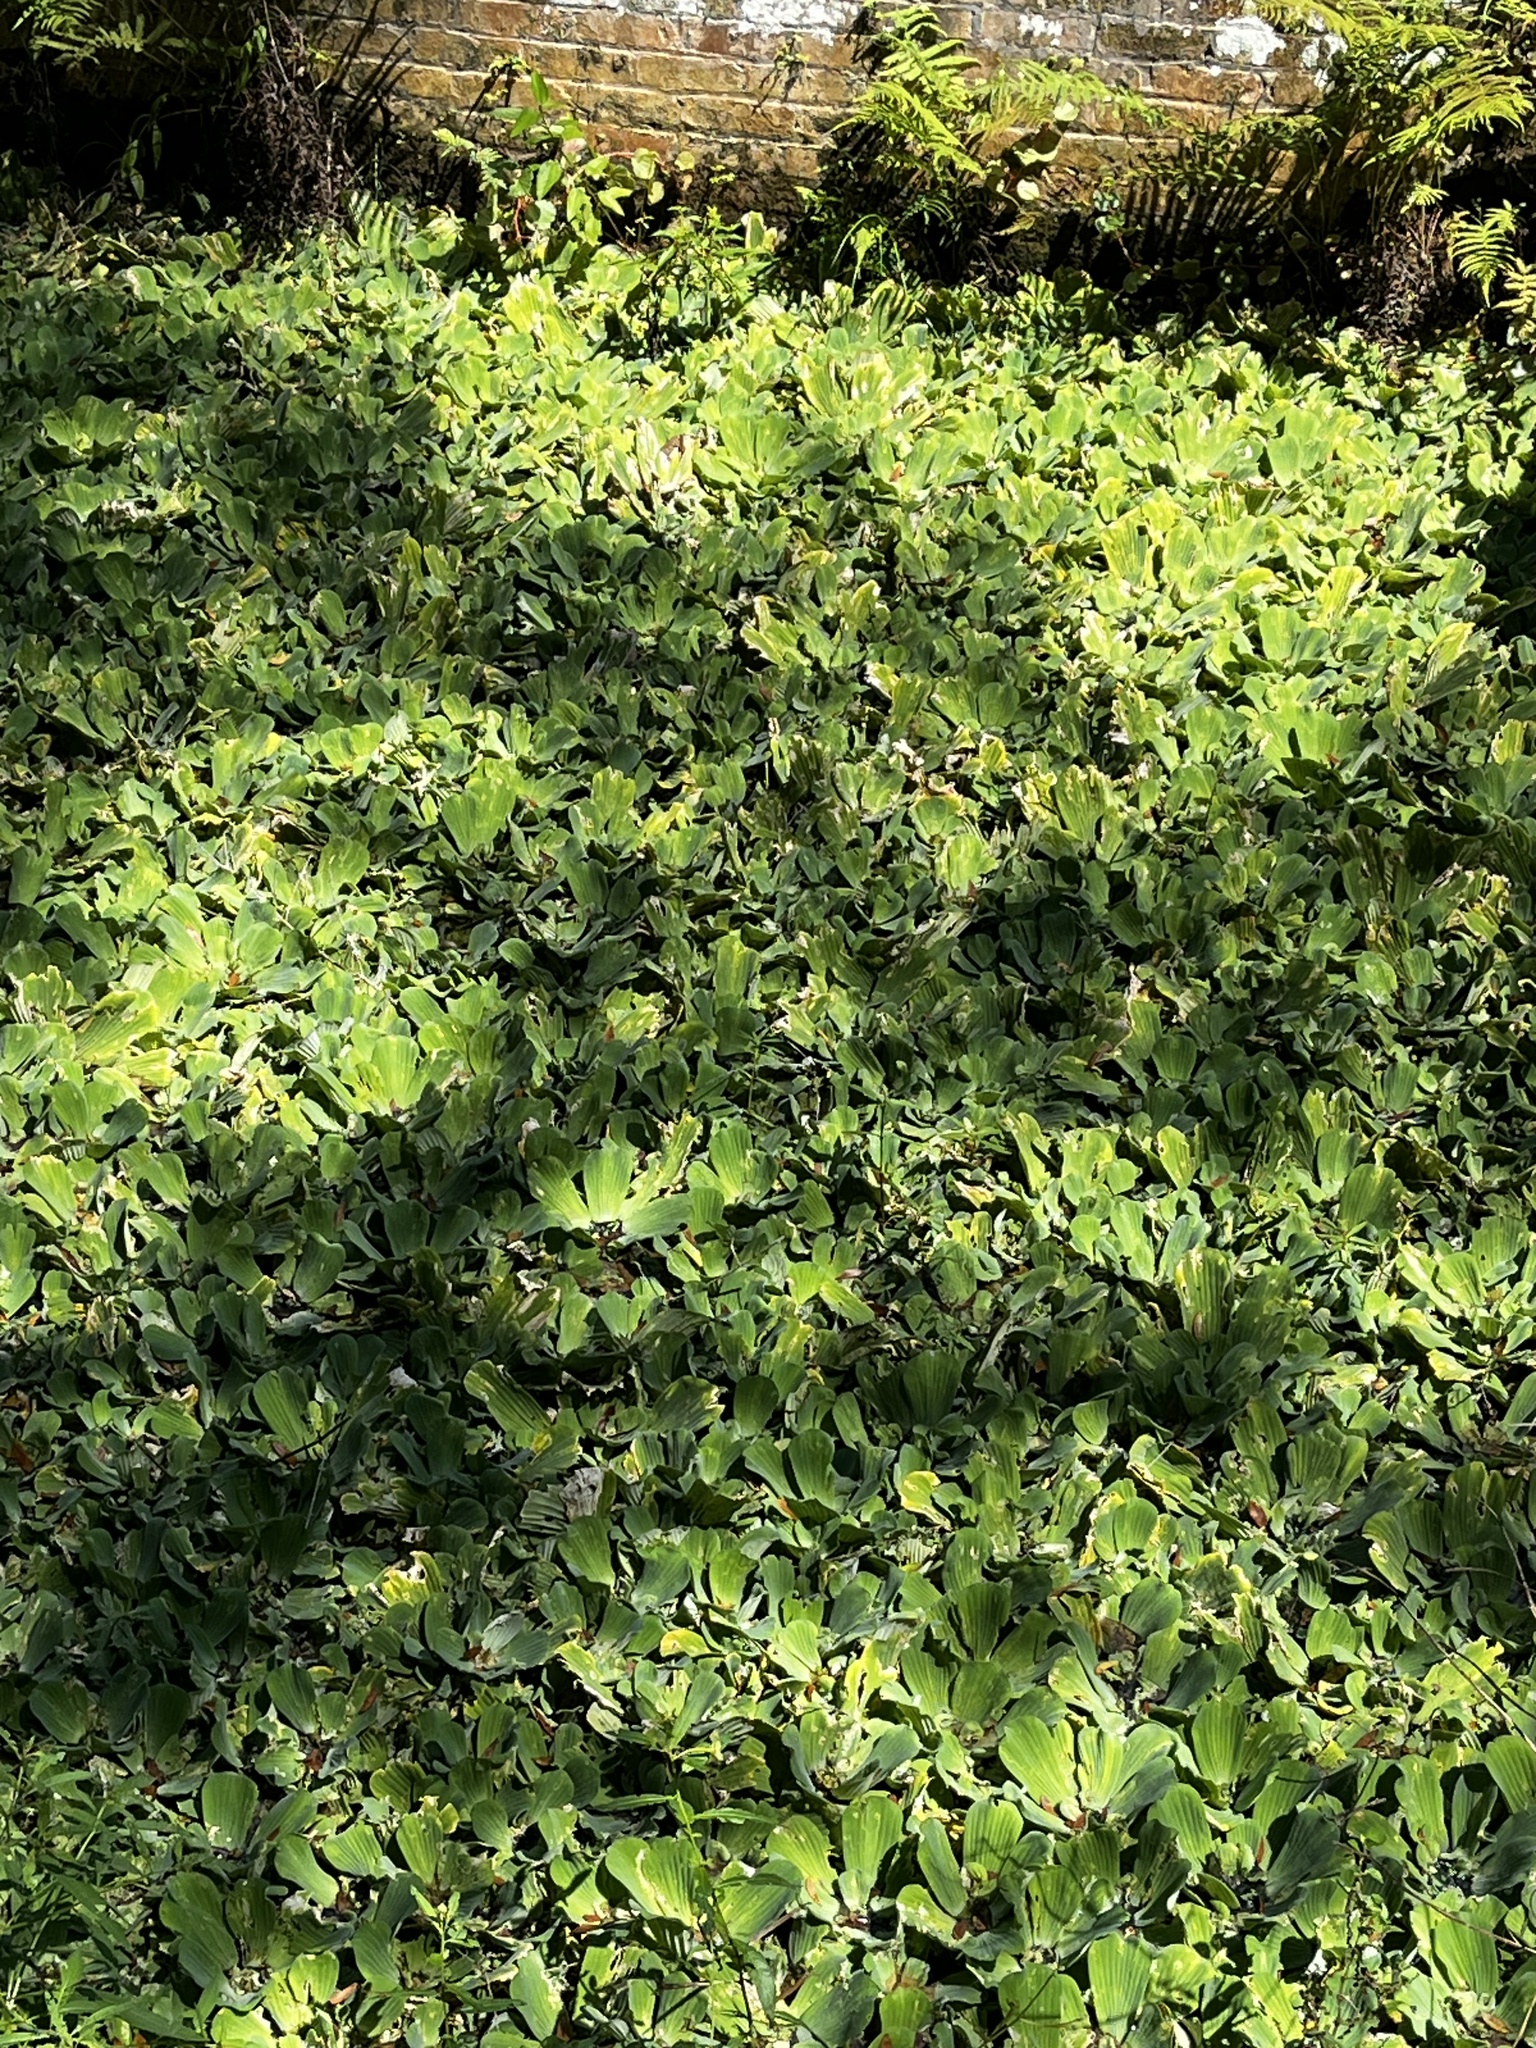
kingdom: Plantae
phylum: Tracheophyta
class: Liliopsida
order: Alismatales
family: Araceae
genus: Pistia
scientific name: Pistia stratiotes
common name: Water lettuce
